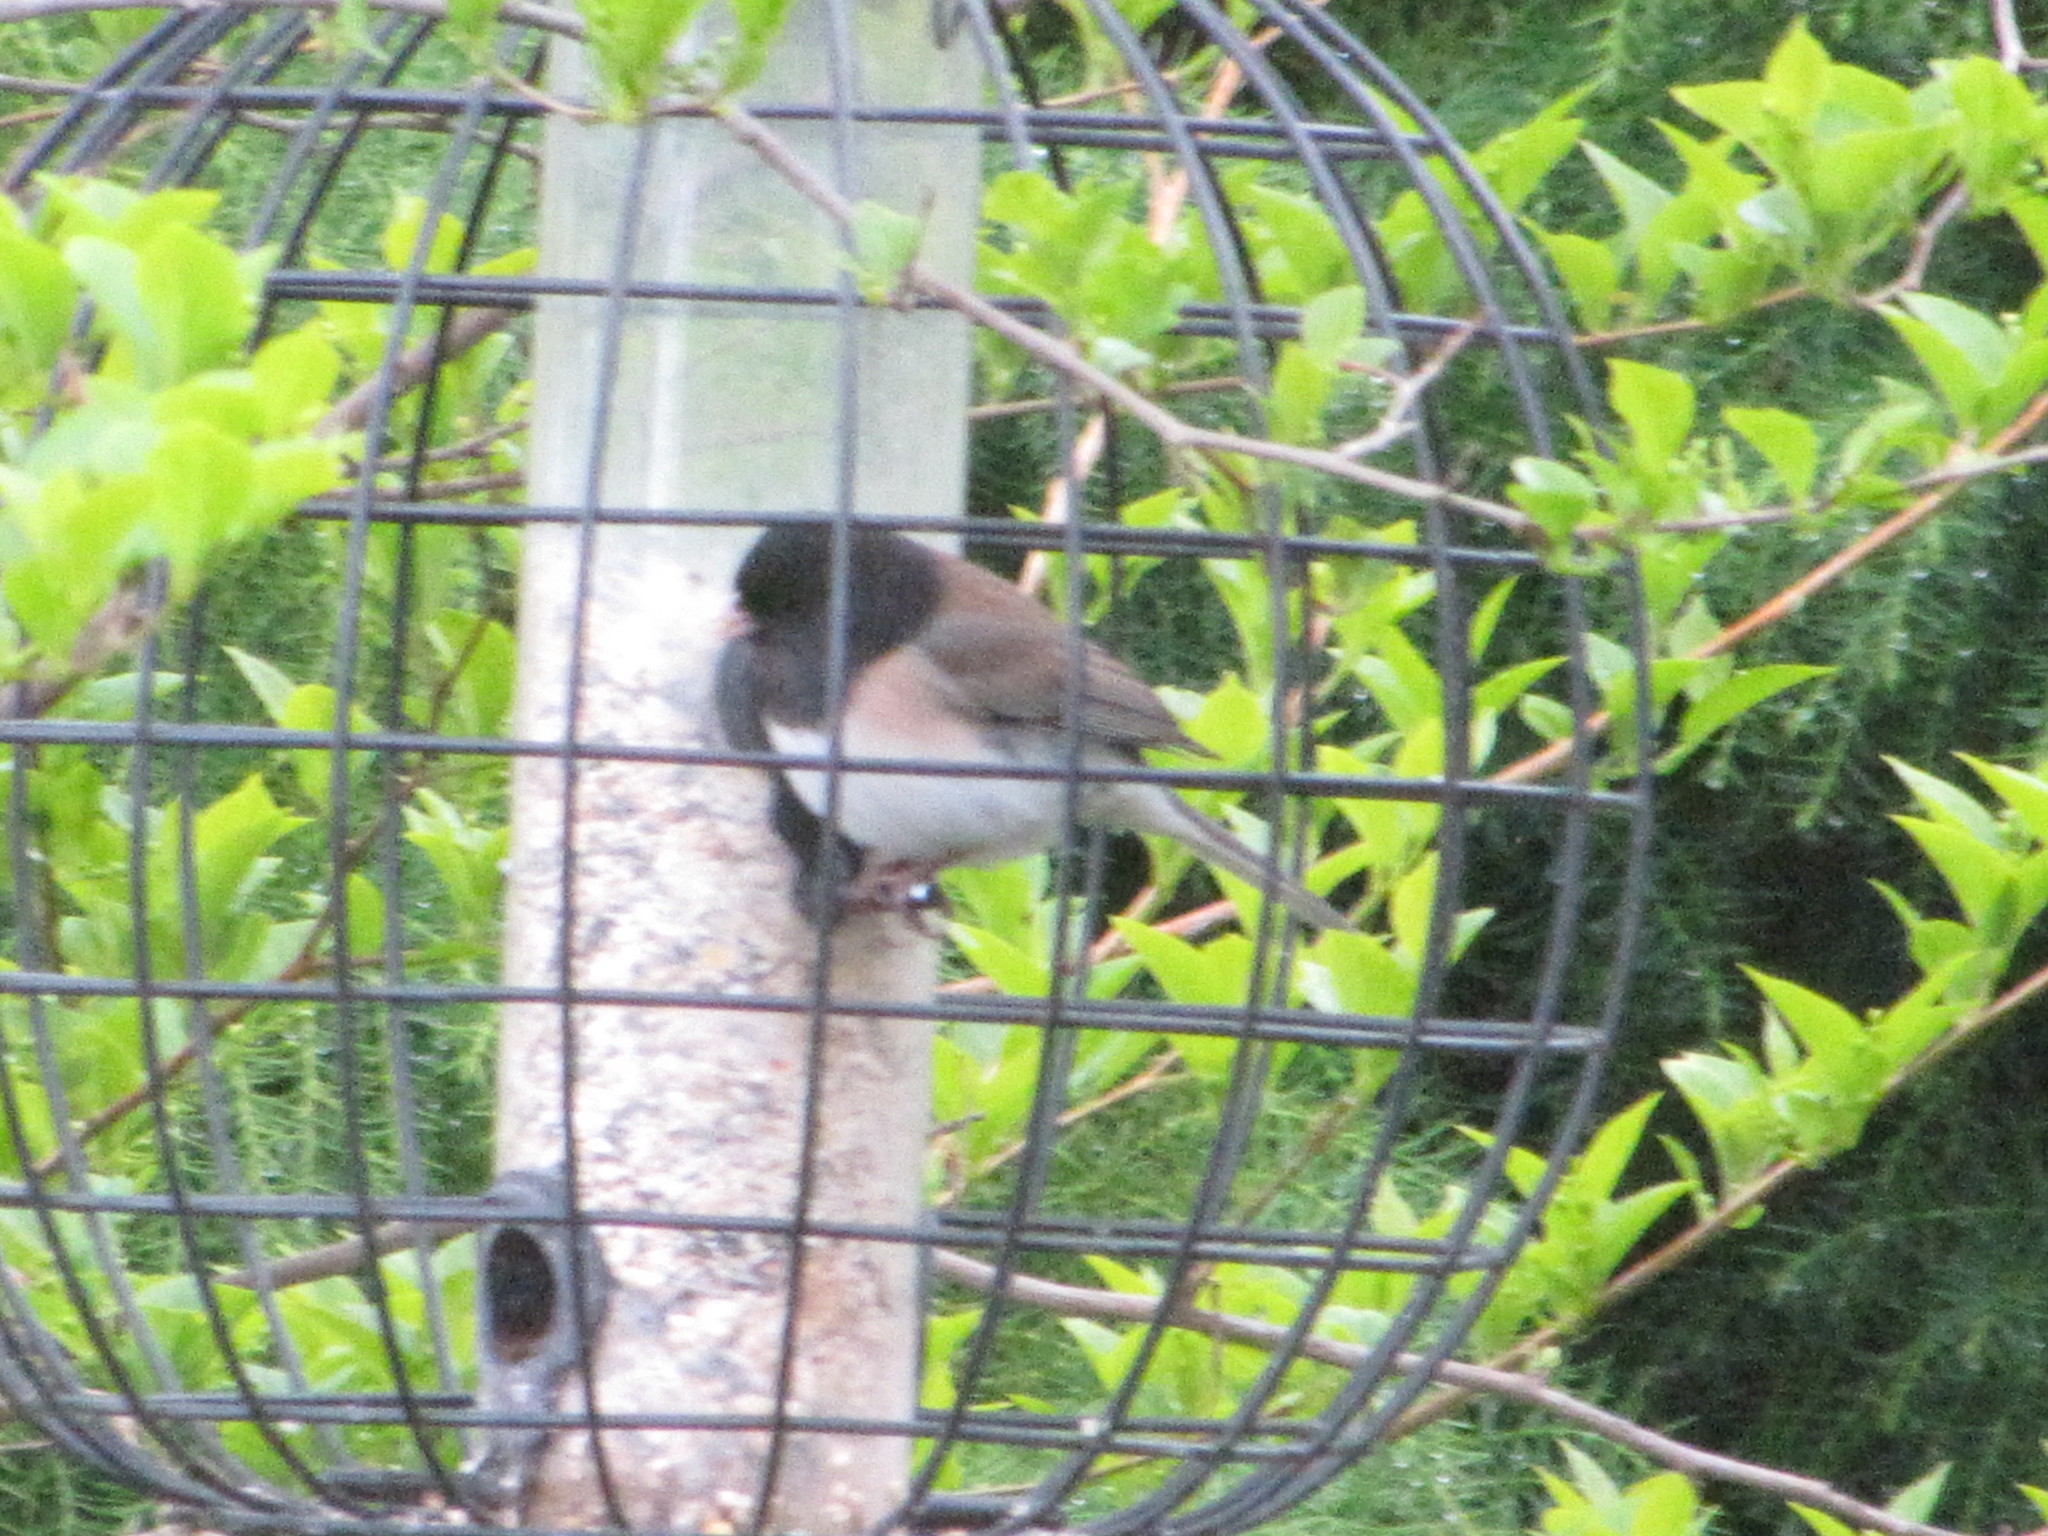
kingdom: Animalia
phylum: Chordata
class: Aves
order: Passeriformes
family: Passerellidae
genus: Junco
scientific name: Junco hyemalis
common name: Dark-eyed junco
